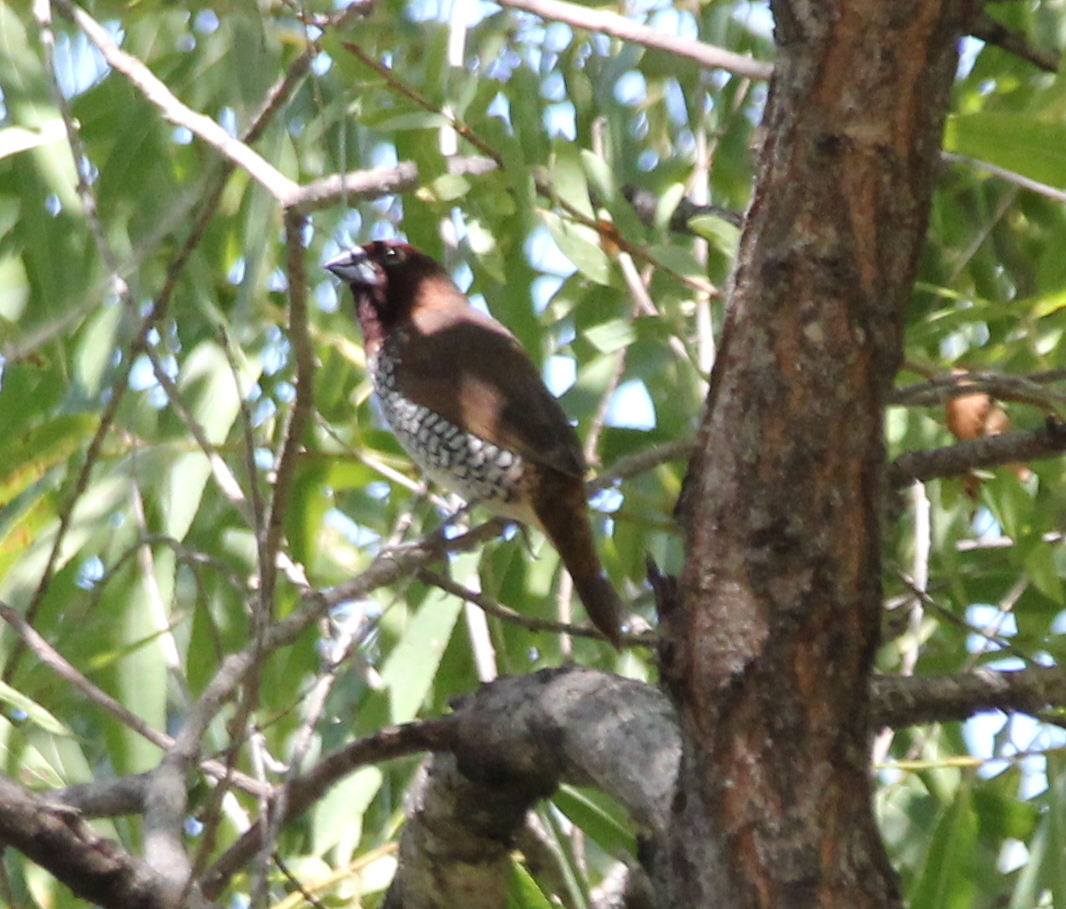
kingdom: Animalia
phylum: Chordata
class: Aves
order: Passeriformes
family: Estrildidae
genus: Lonchura
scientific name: Lonchura punctulata
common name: Scaly-breasted munia
